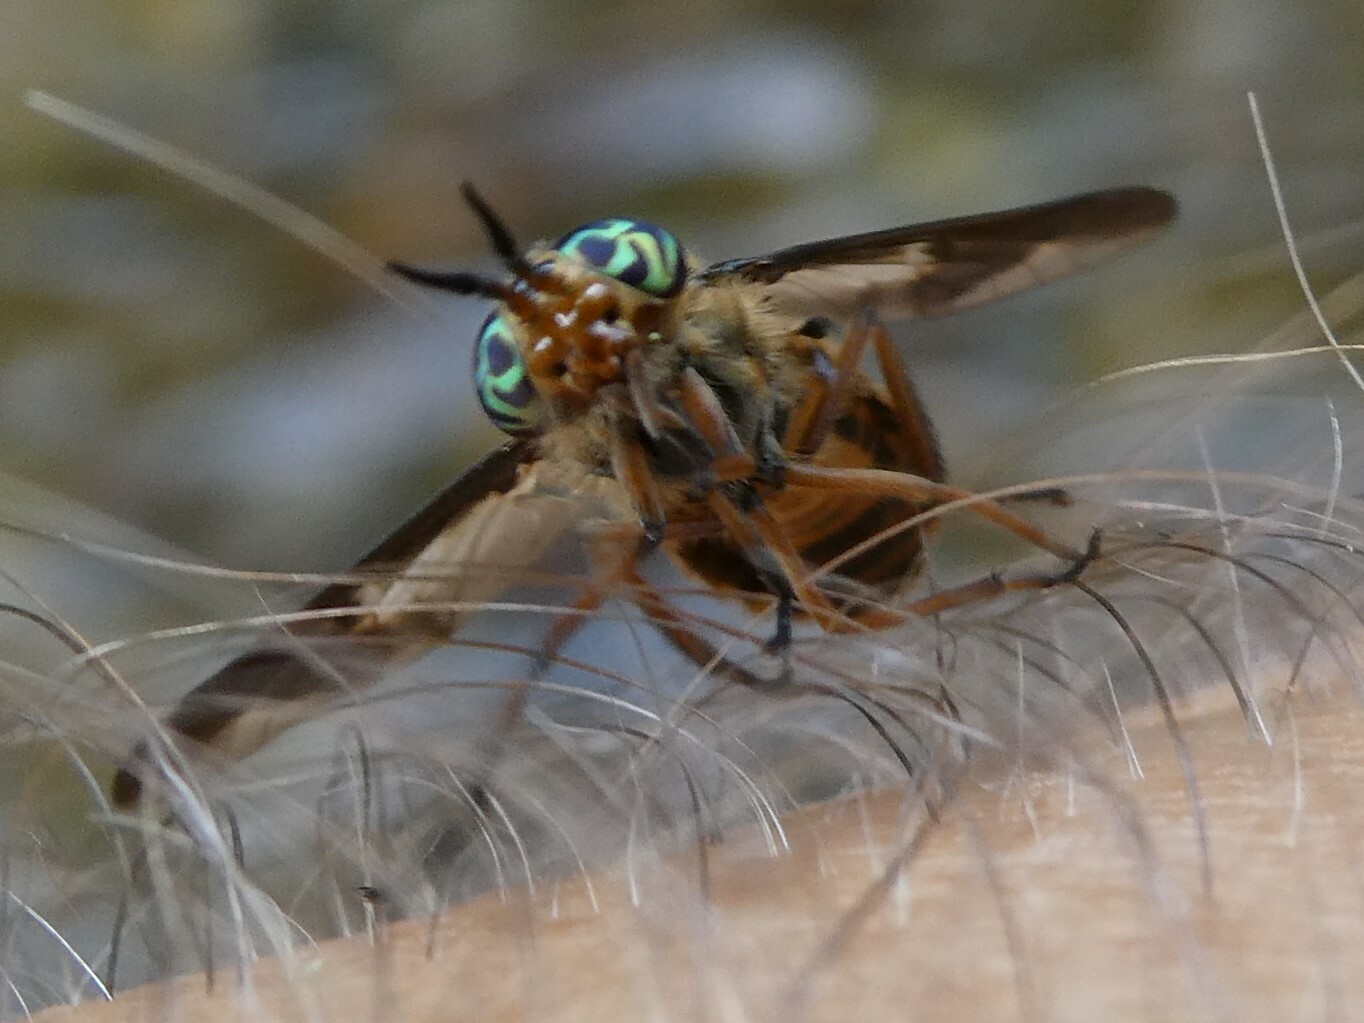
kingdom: Animalia
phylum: Arthropoda
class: Insecta
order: Diptera
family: Tabanidae
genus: Chrysops
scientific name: Chrysops indus
